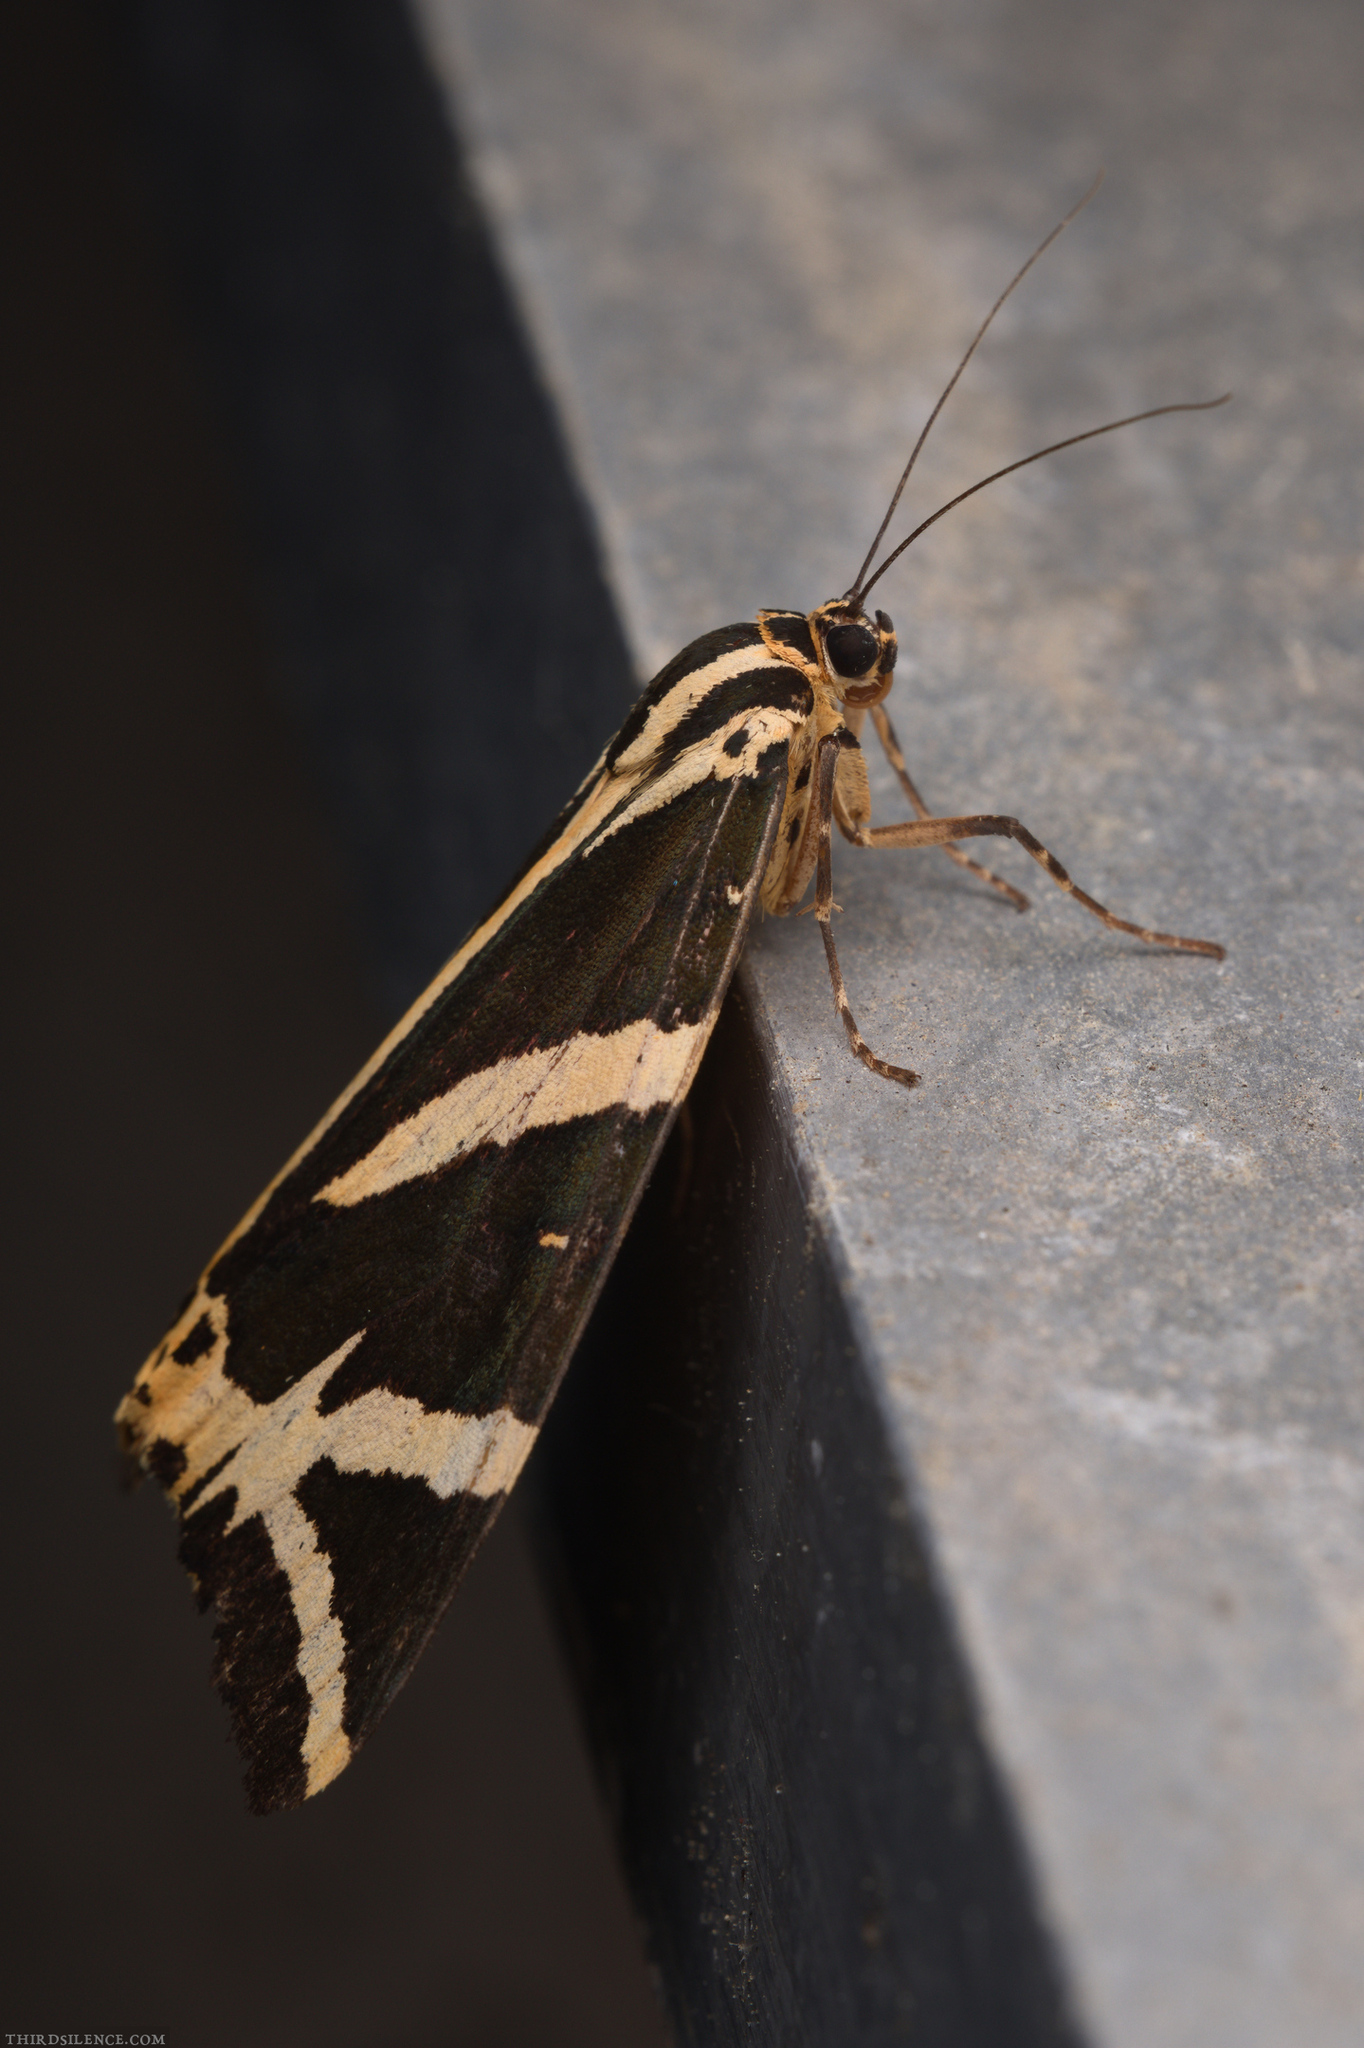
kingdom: Animalia
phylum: Arthropoda
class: Insecta
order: Lepidoptera
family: Erebidae
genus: Euplagia
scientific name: Euplagia quadripunctaria
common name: Jersey tiger
